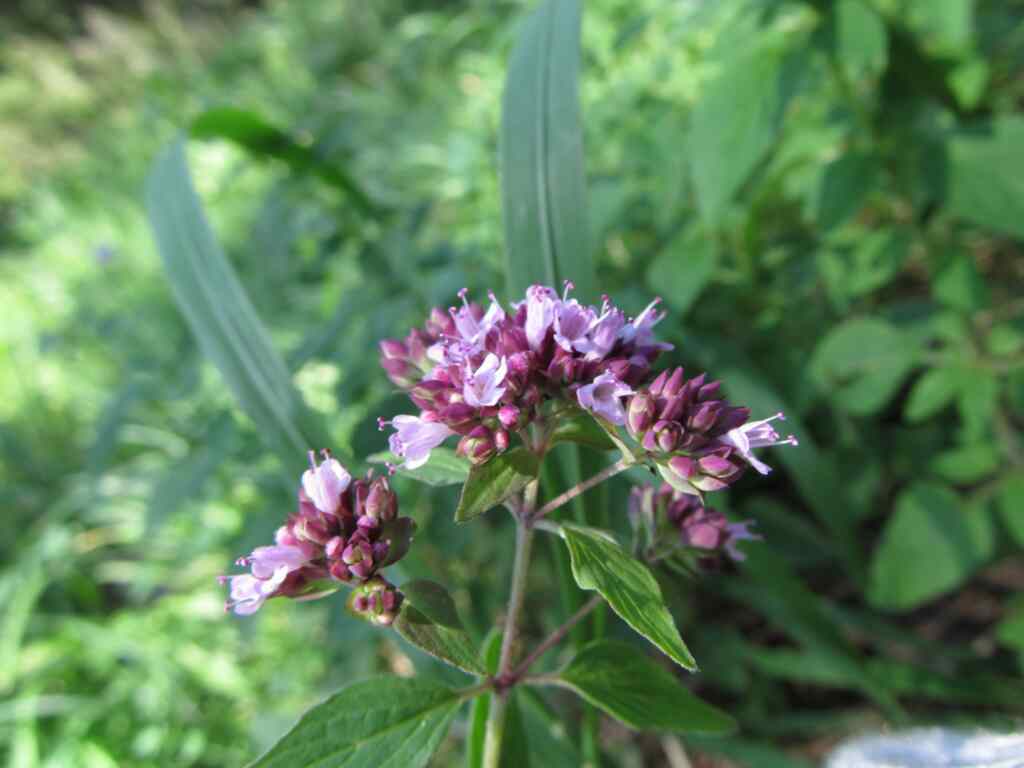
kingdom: Plantae
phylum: Tracheophyta
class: Magnoliopsida
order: Lamiales
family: Lamiaceae
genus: Origanum
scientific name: Origanum vulgare
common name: Wild marjoram
